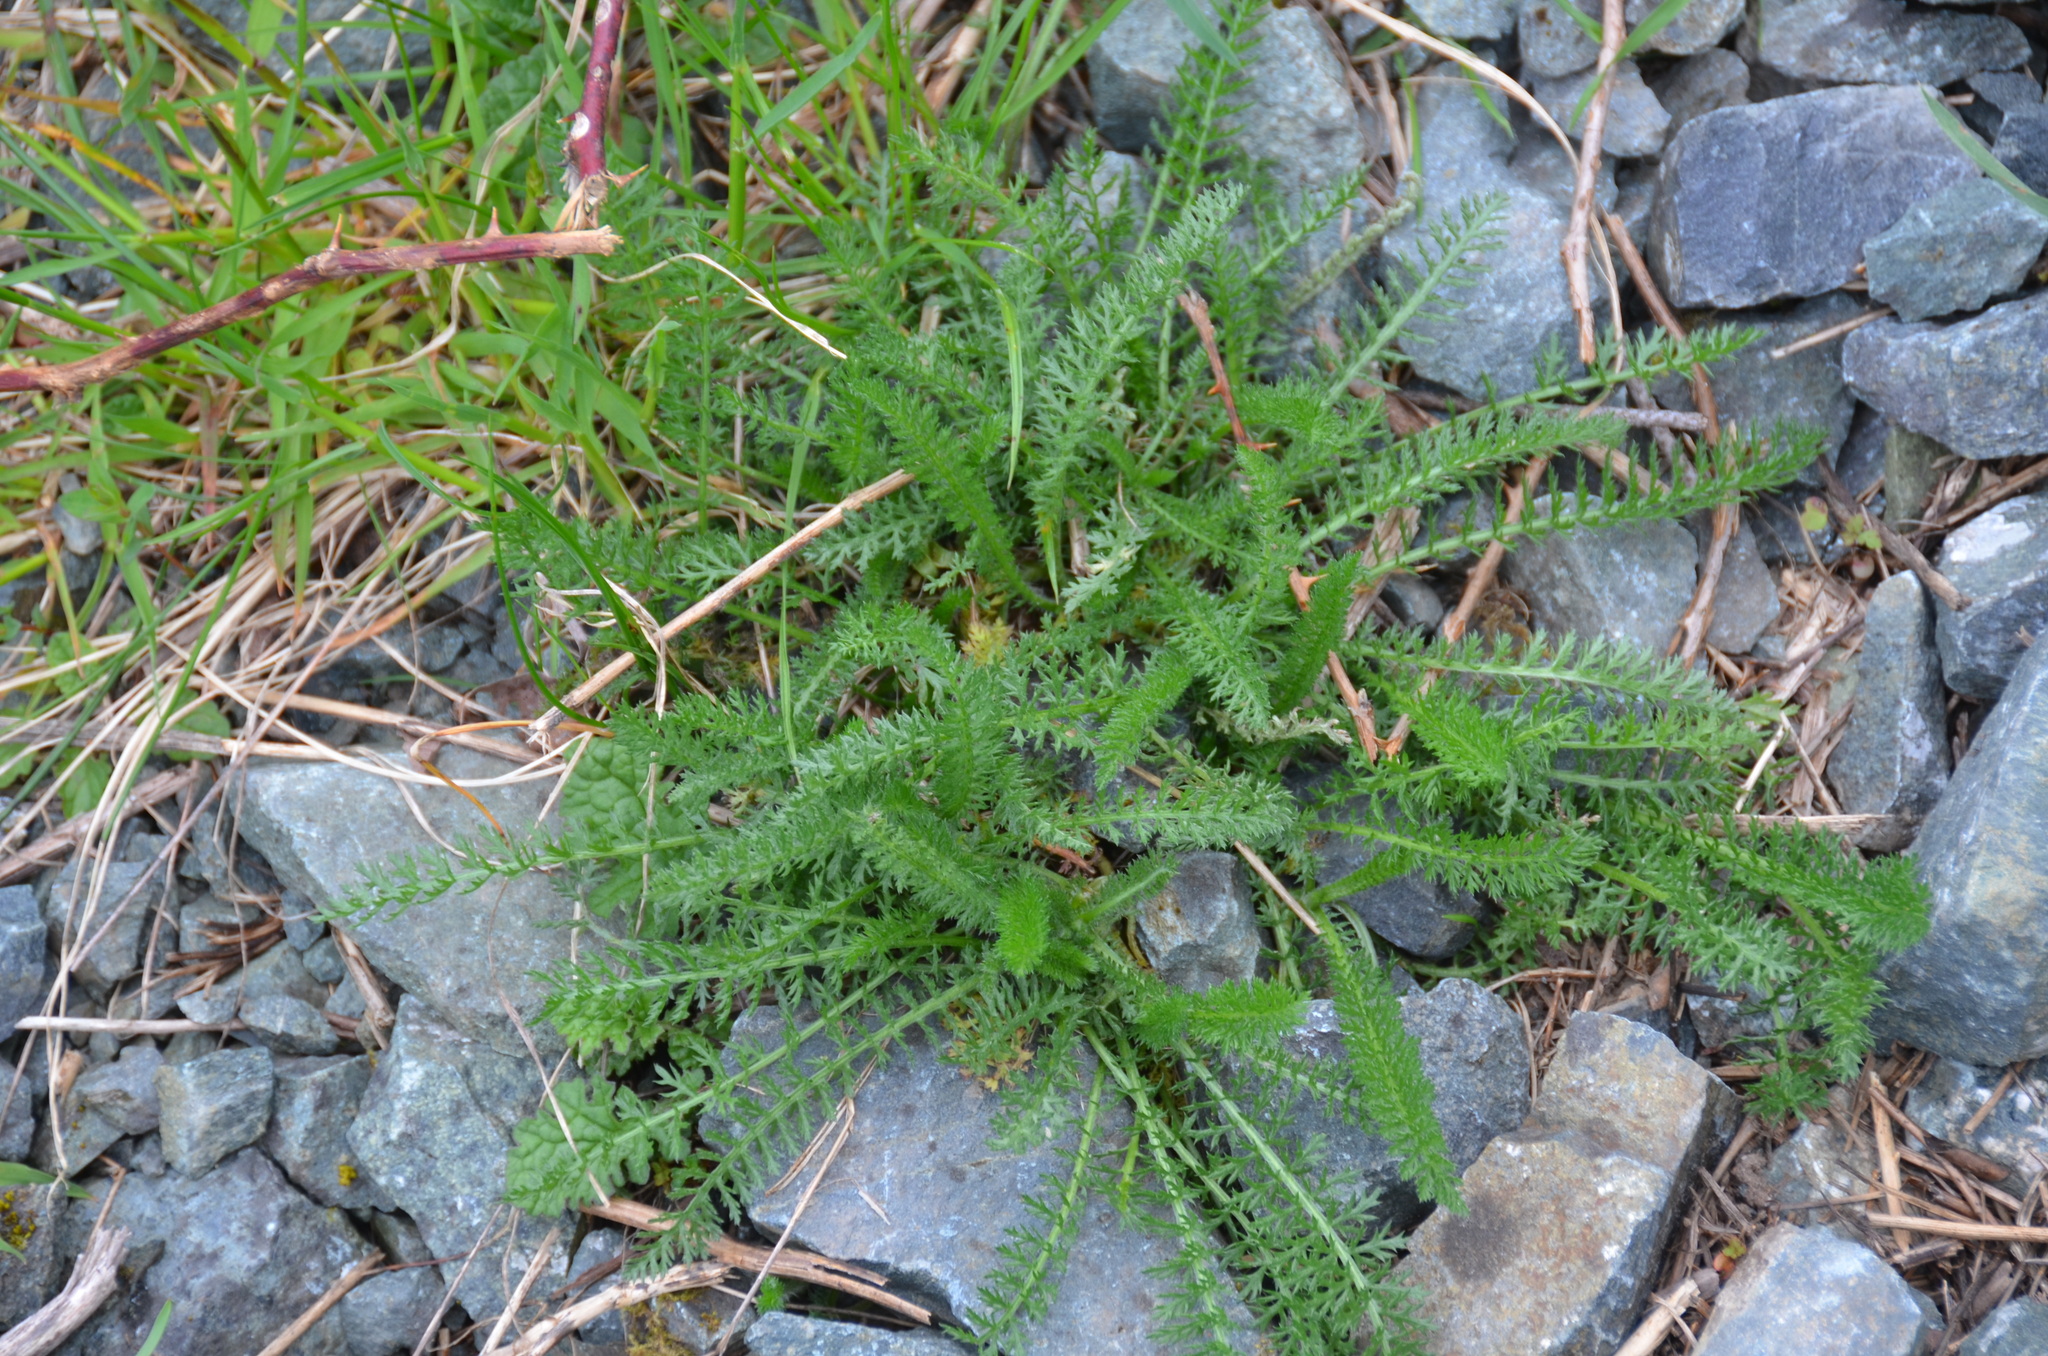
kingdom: Plantae
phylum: Tracheophyta
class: Magnoliopsida
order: Asterales
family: Asteraceae
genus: Achillea
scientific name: Achillea millefolium
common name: Yarrow
